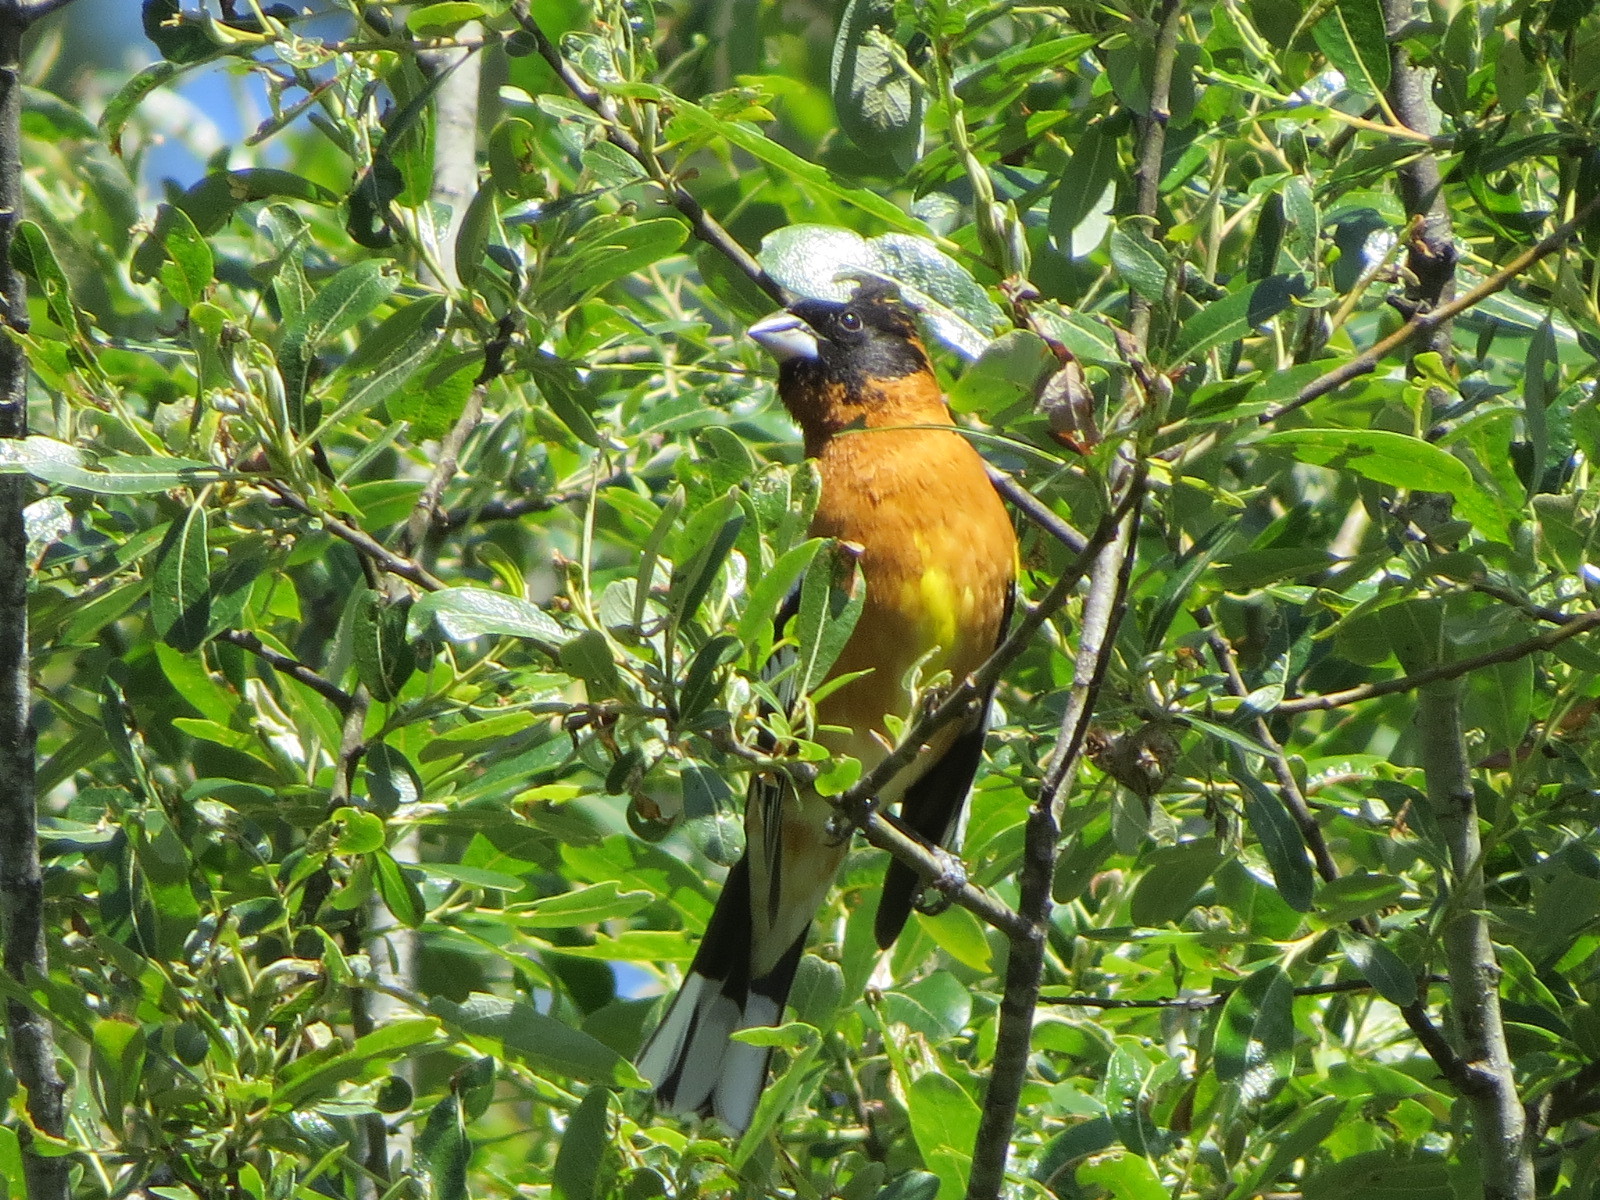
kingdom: Animalia
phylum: Chordata
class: Aves
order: Passeriformes
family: Cardinalidae
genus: Pheucticus
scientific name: Pheucticus melanocephalus
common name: Black-headed grosbeak
